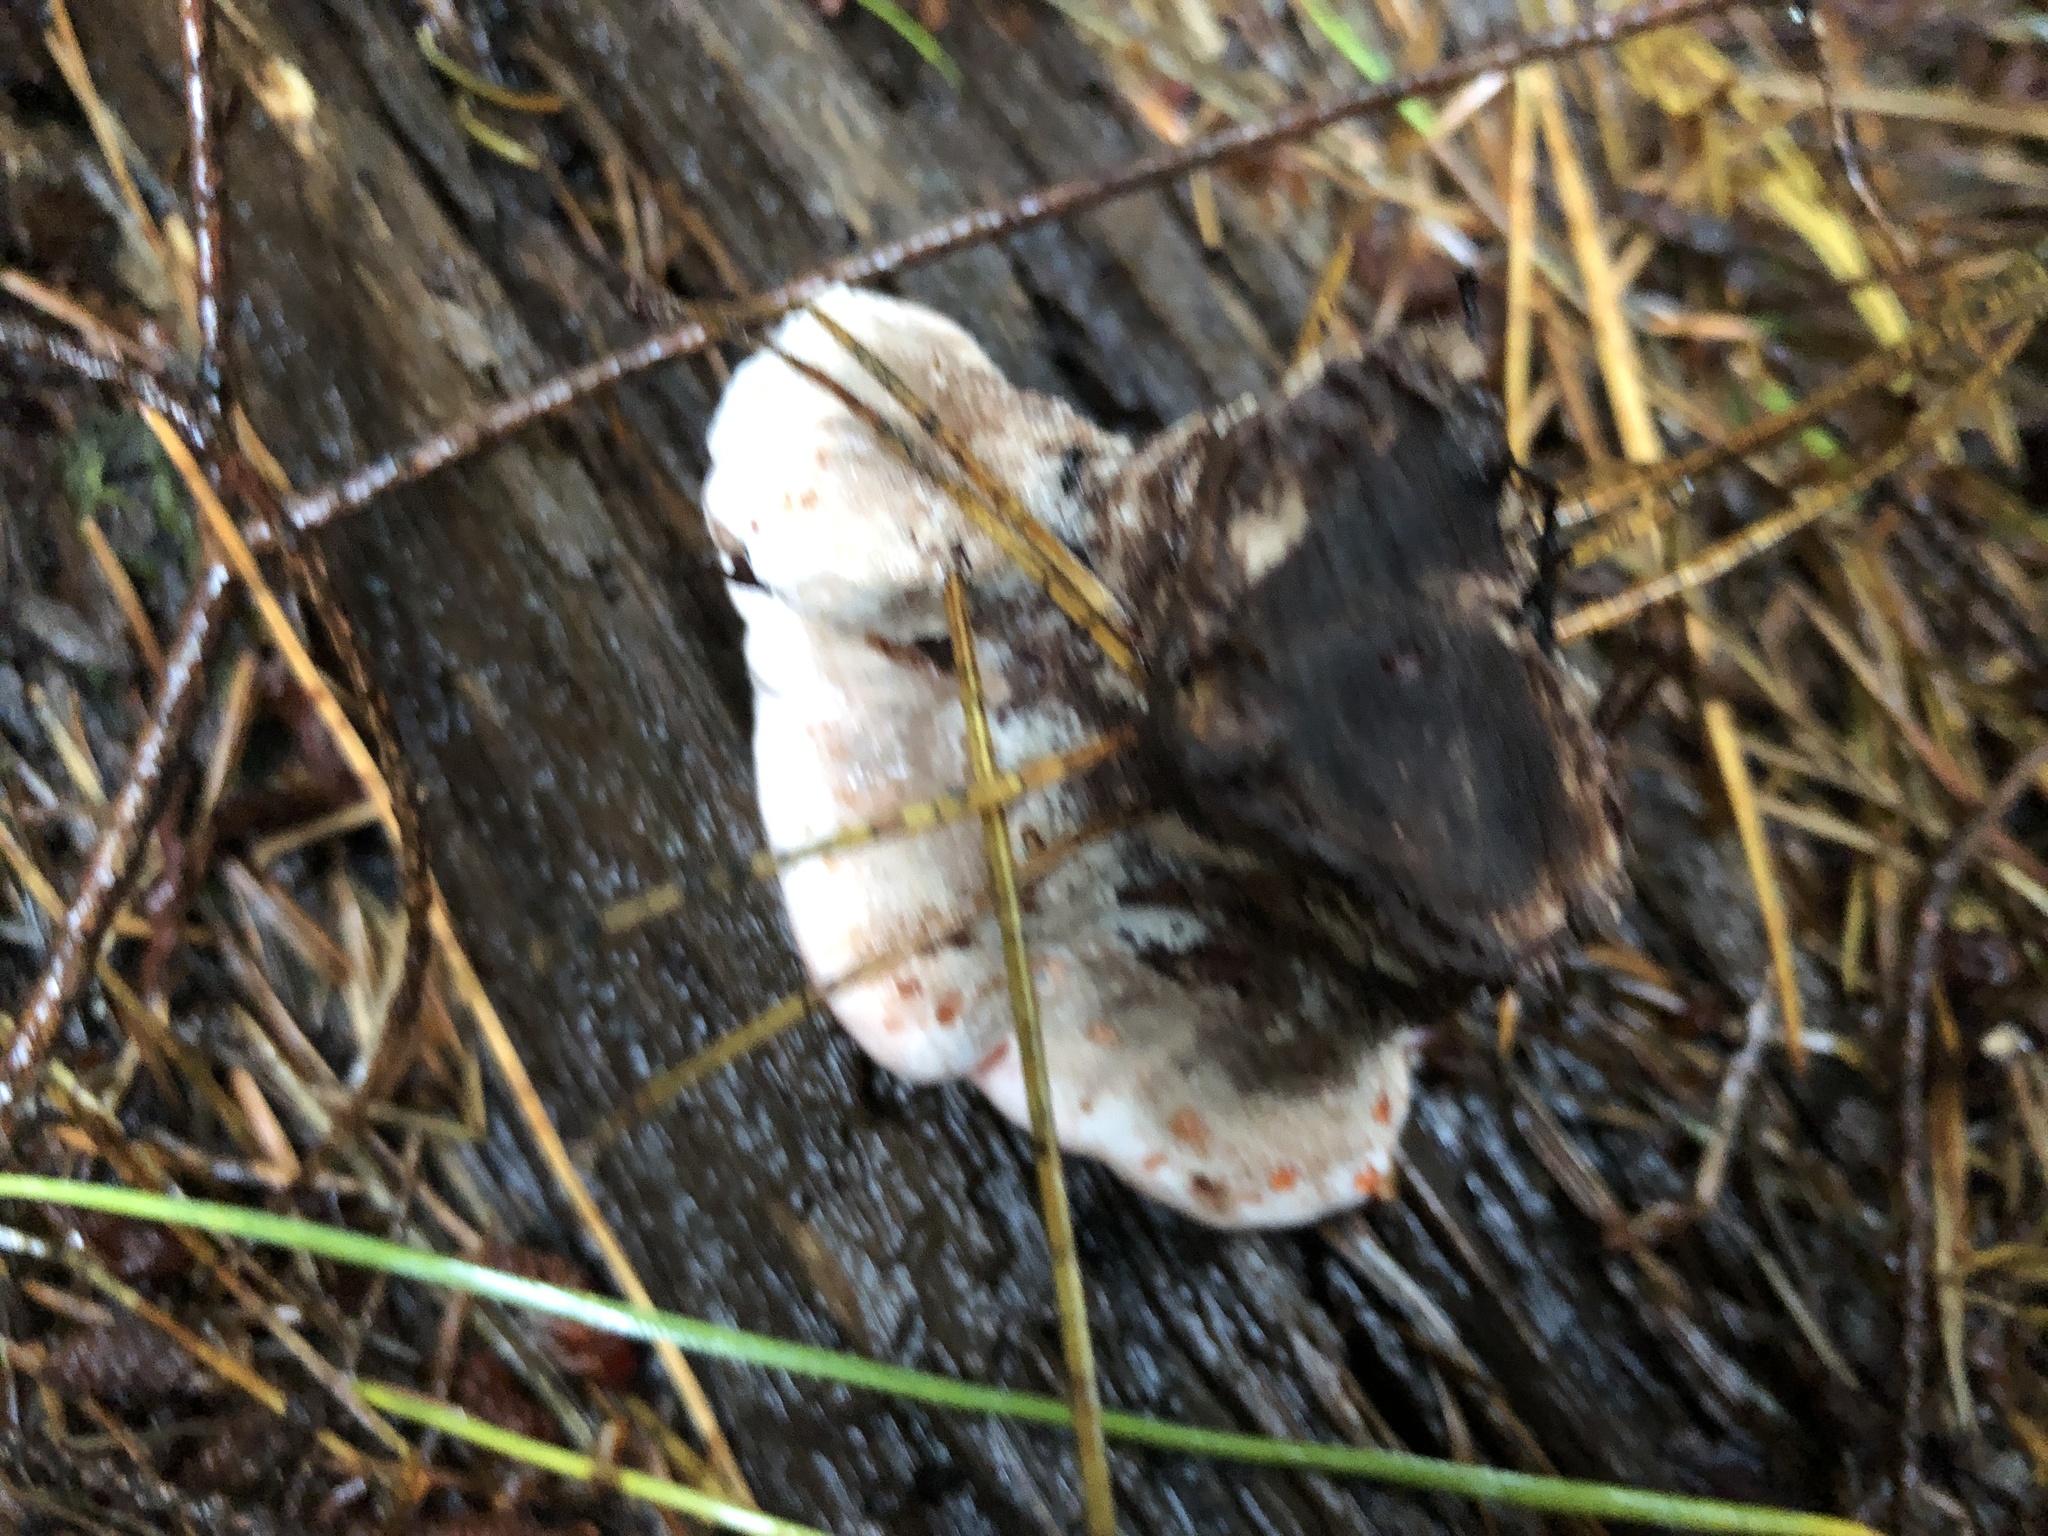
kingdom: Fungi
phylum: Basidiomycota
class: Agaricomycetes
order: Thelephorales
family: Bankeraceae
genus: Hydnellum
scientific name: Hydnellum peckii
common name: Devil's tooth
